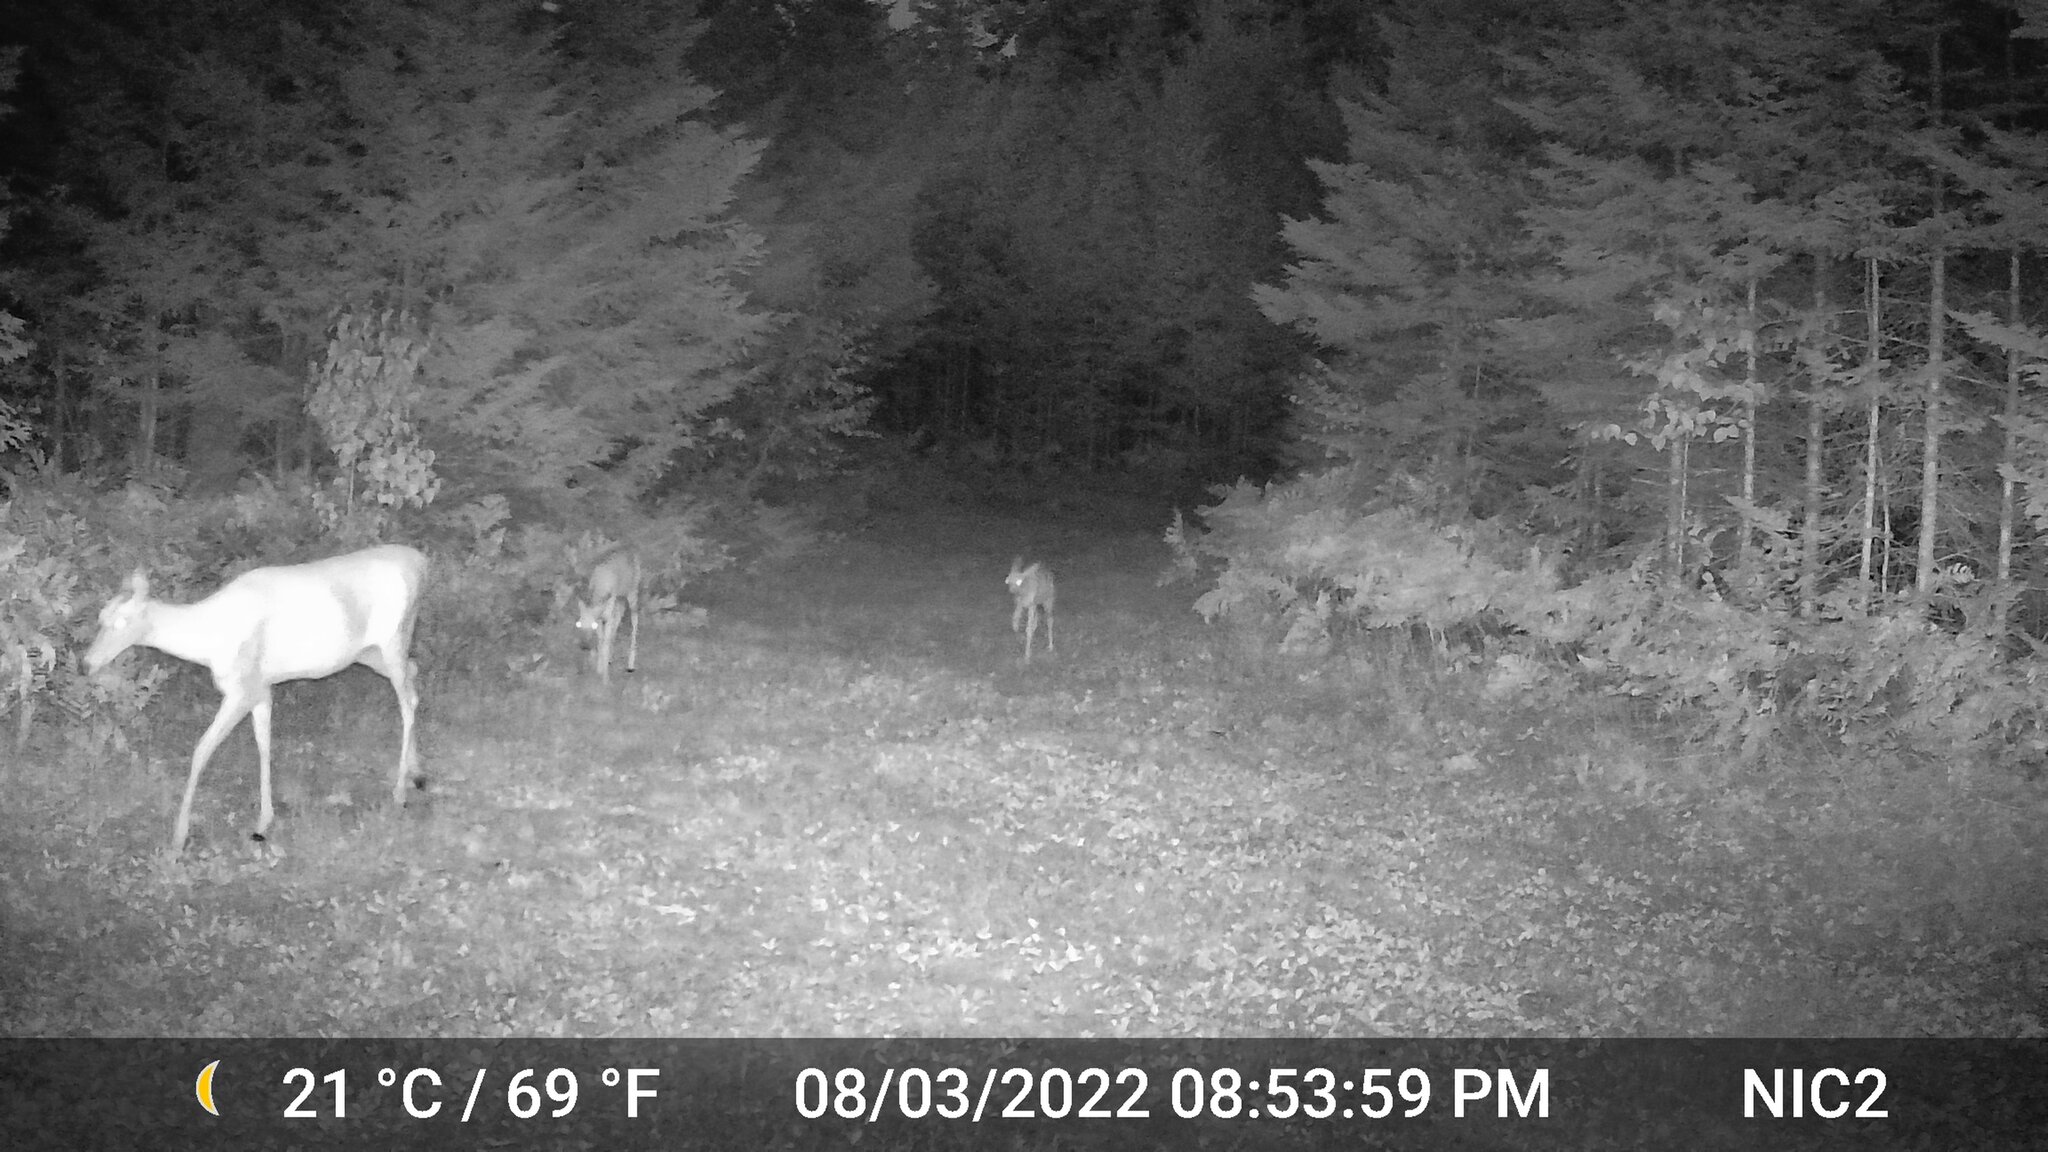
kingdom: Animalia
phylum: Chordata
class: Mammalia
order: Artiodactyla
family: Cervidae
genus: Odocoileus
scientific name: Odocoileus virginianus
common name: White-tailed deer
